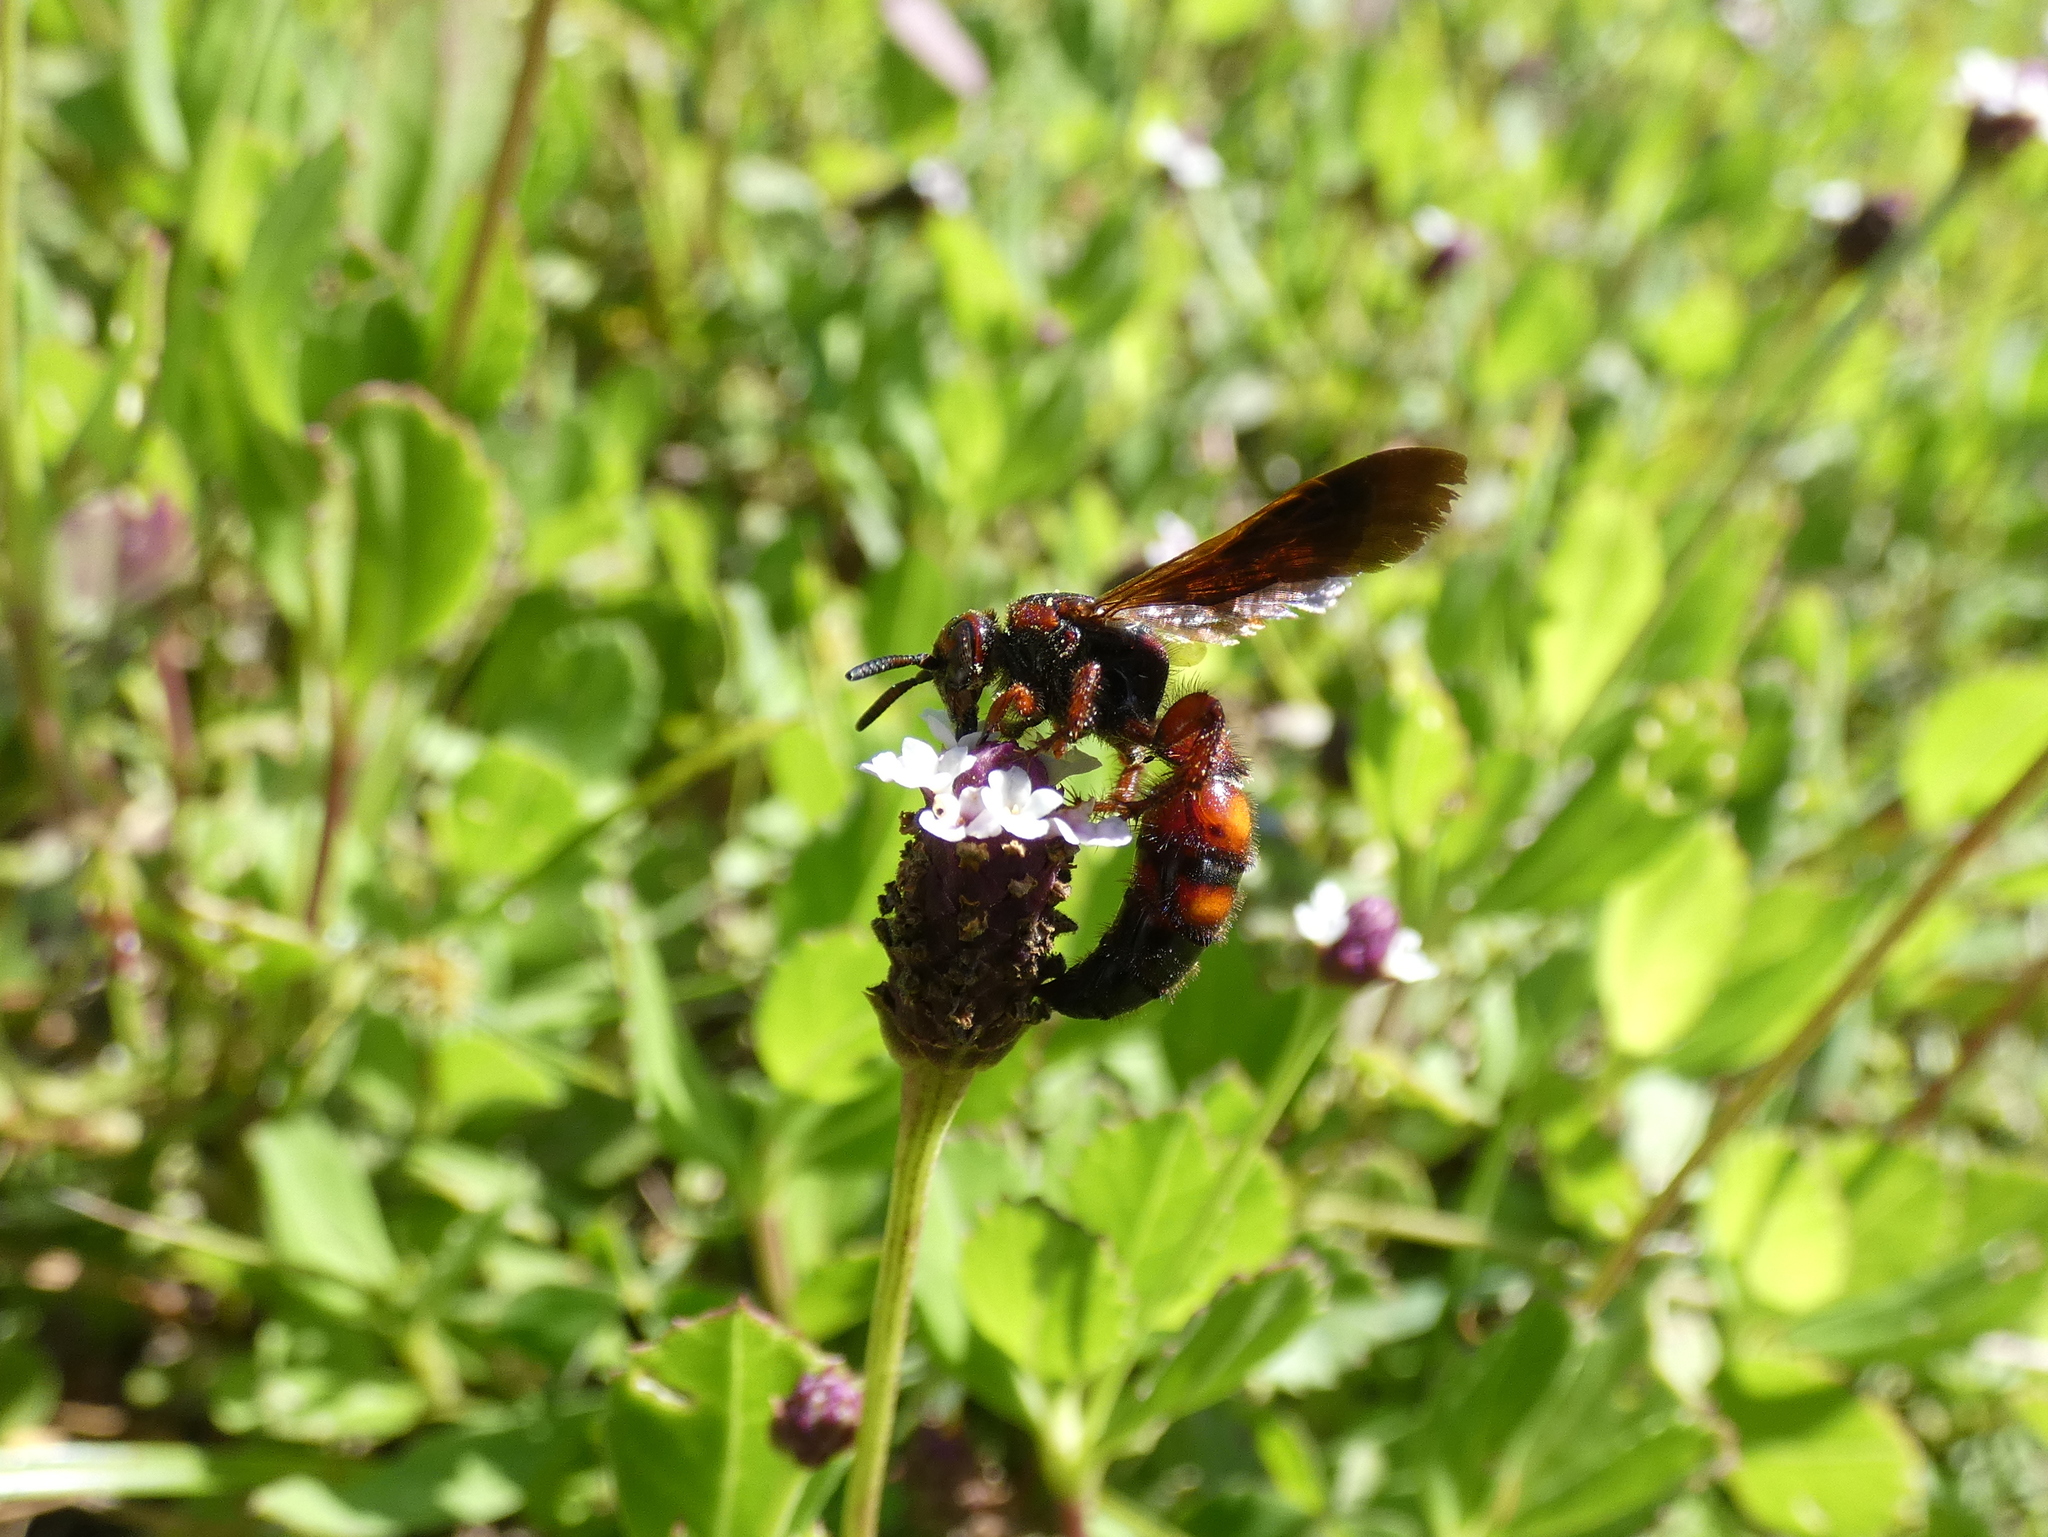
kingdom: Animalia
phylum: Arthropoda
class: Insecta
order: Hymenoptera
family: Scoliidae
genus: Scolia
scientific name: Scolia nobilitata
